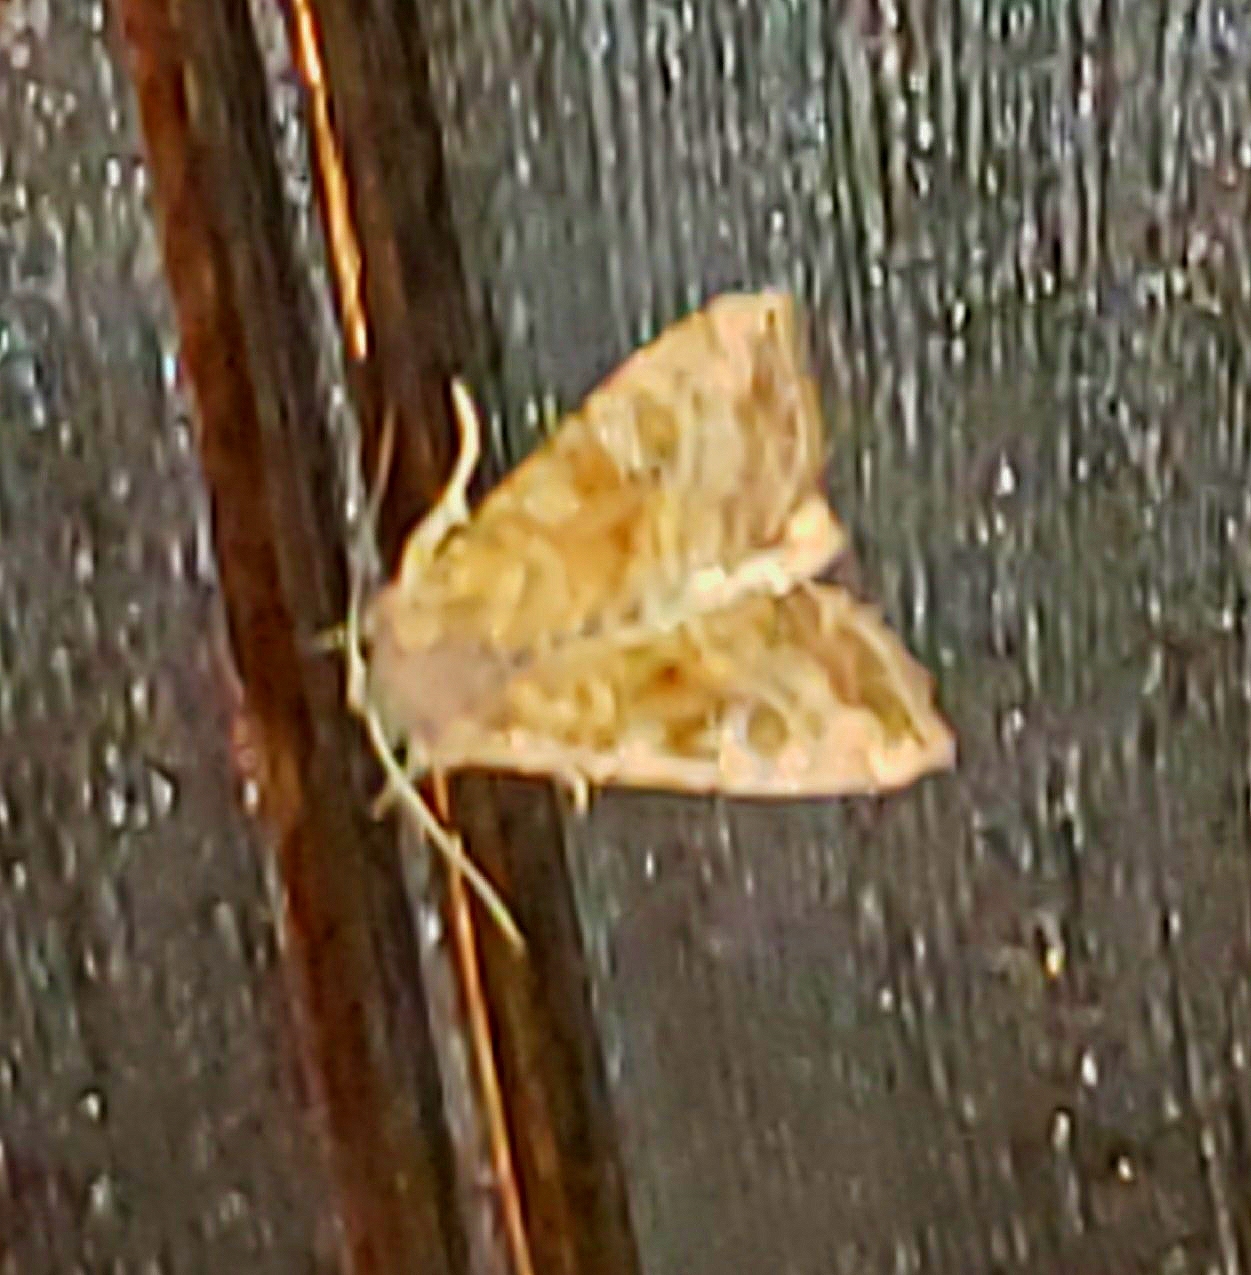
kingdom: Animalia
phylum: Arthropoda
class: Insecta
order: Lepidoptera
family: Noctuidae
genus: Loscopia
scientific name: Loscopia velata
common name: Veiled ear moth
